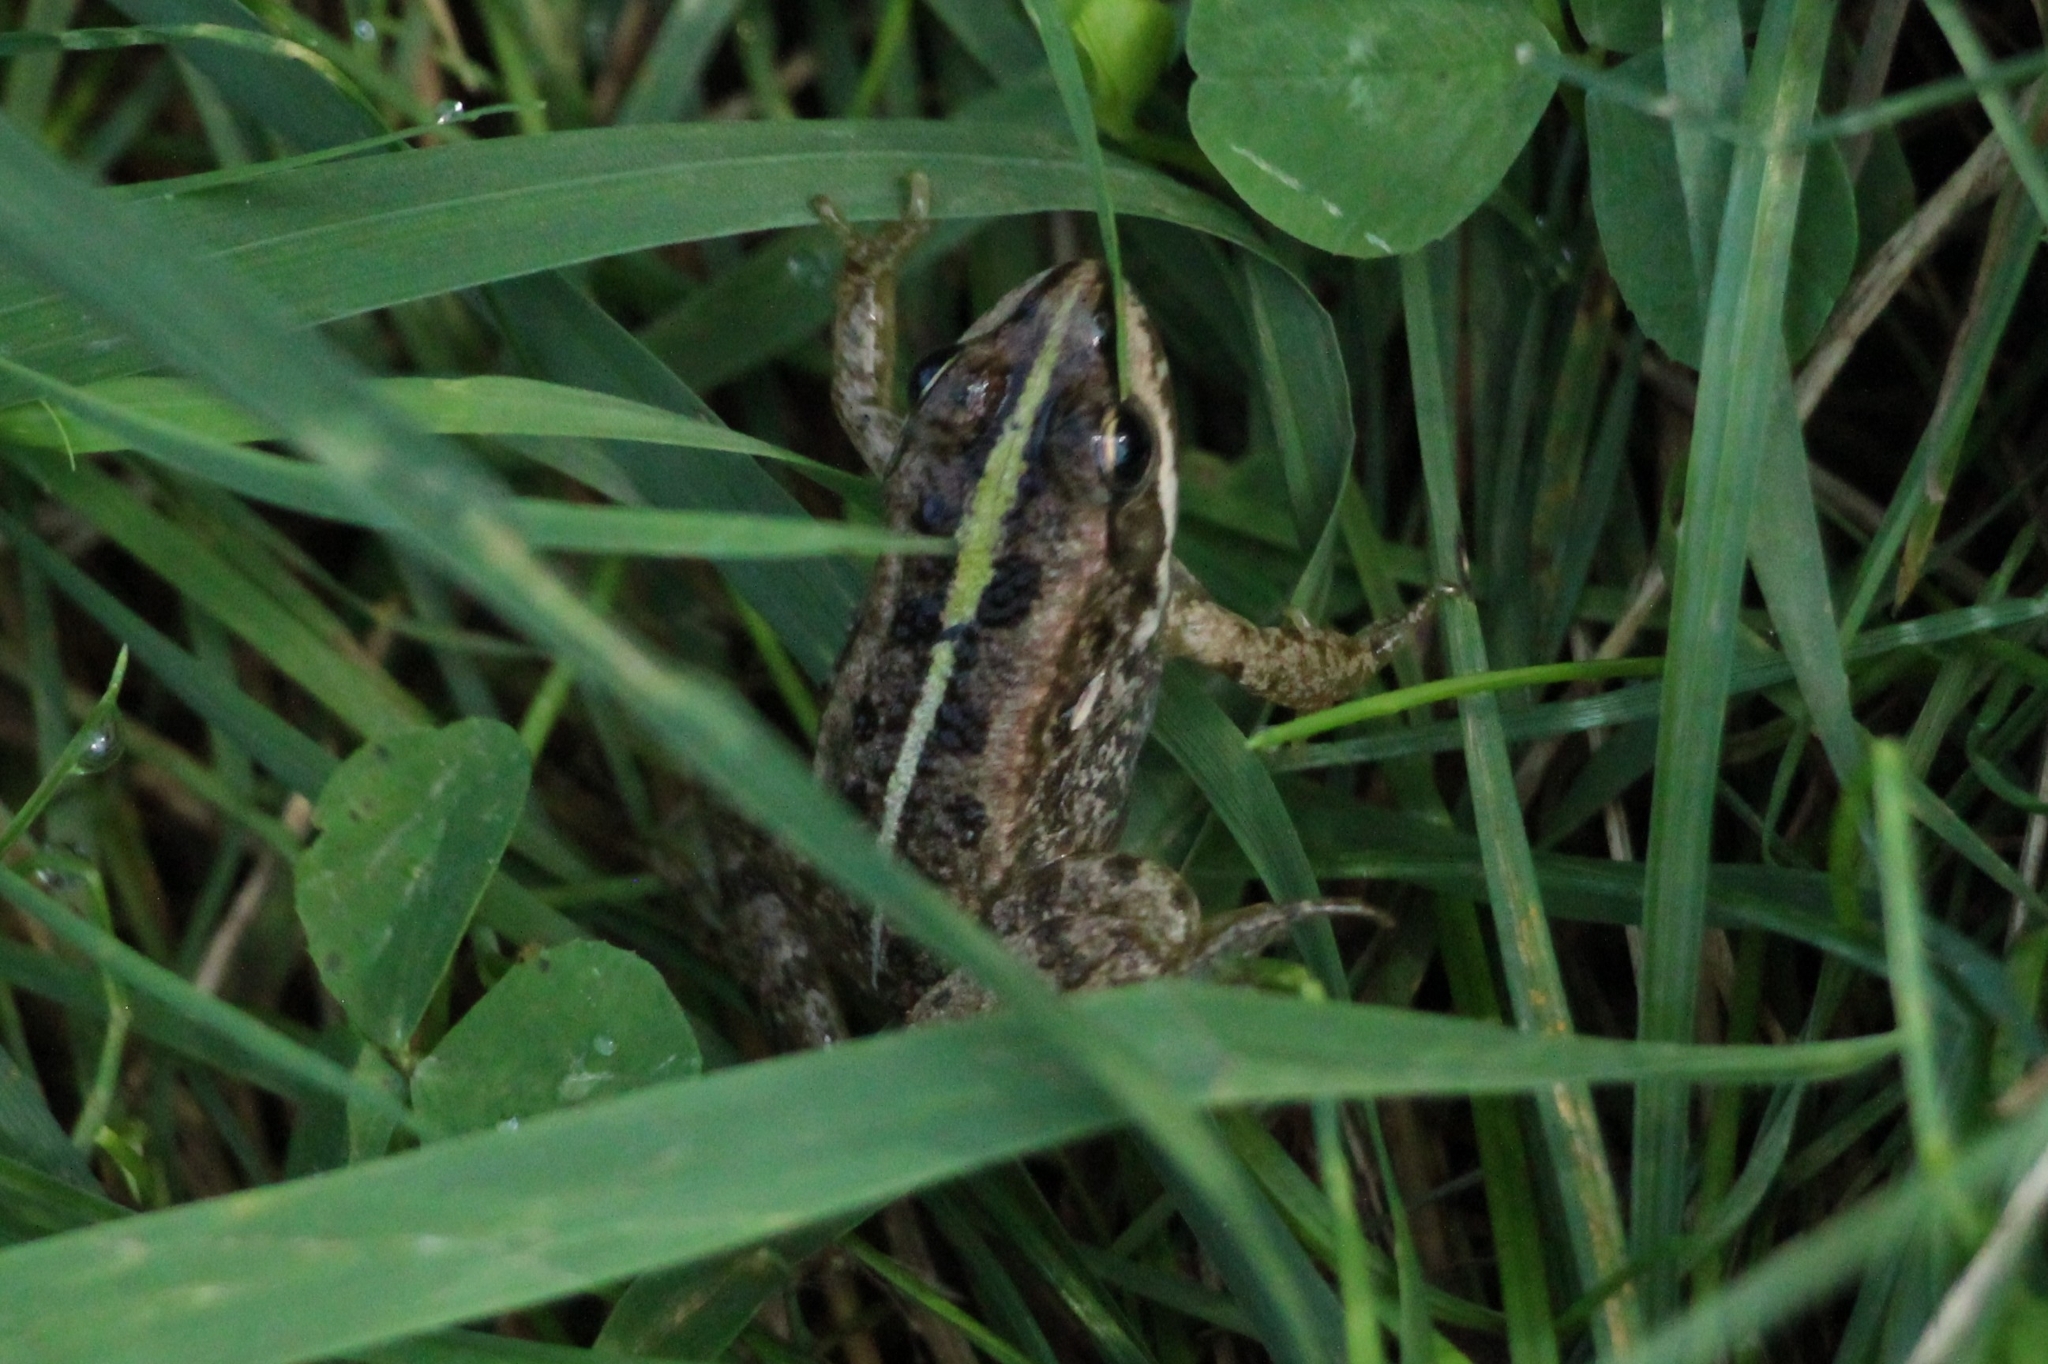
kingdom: Animalia
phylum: Chordata
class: Amphibia
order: Anura
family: Ranidae
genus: Pelophylax
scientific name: Pelophylax ridibundus
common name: Marsh frog
